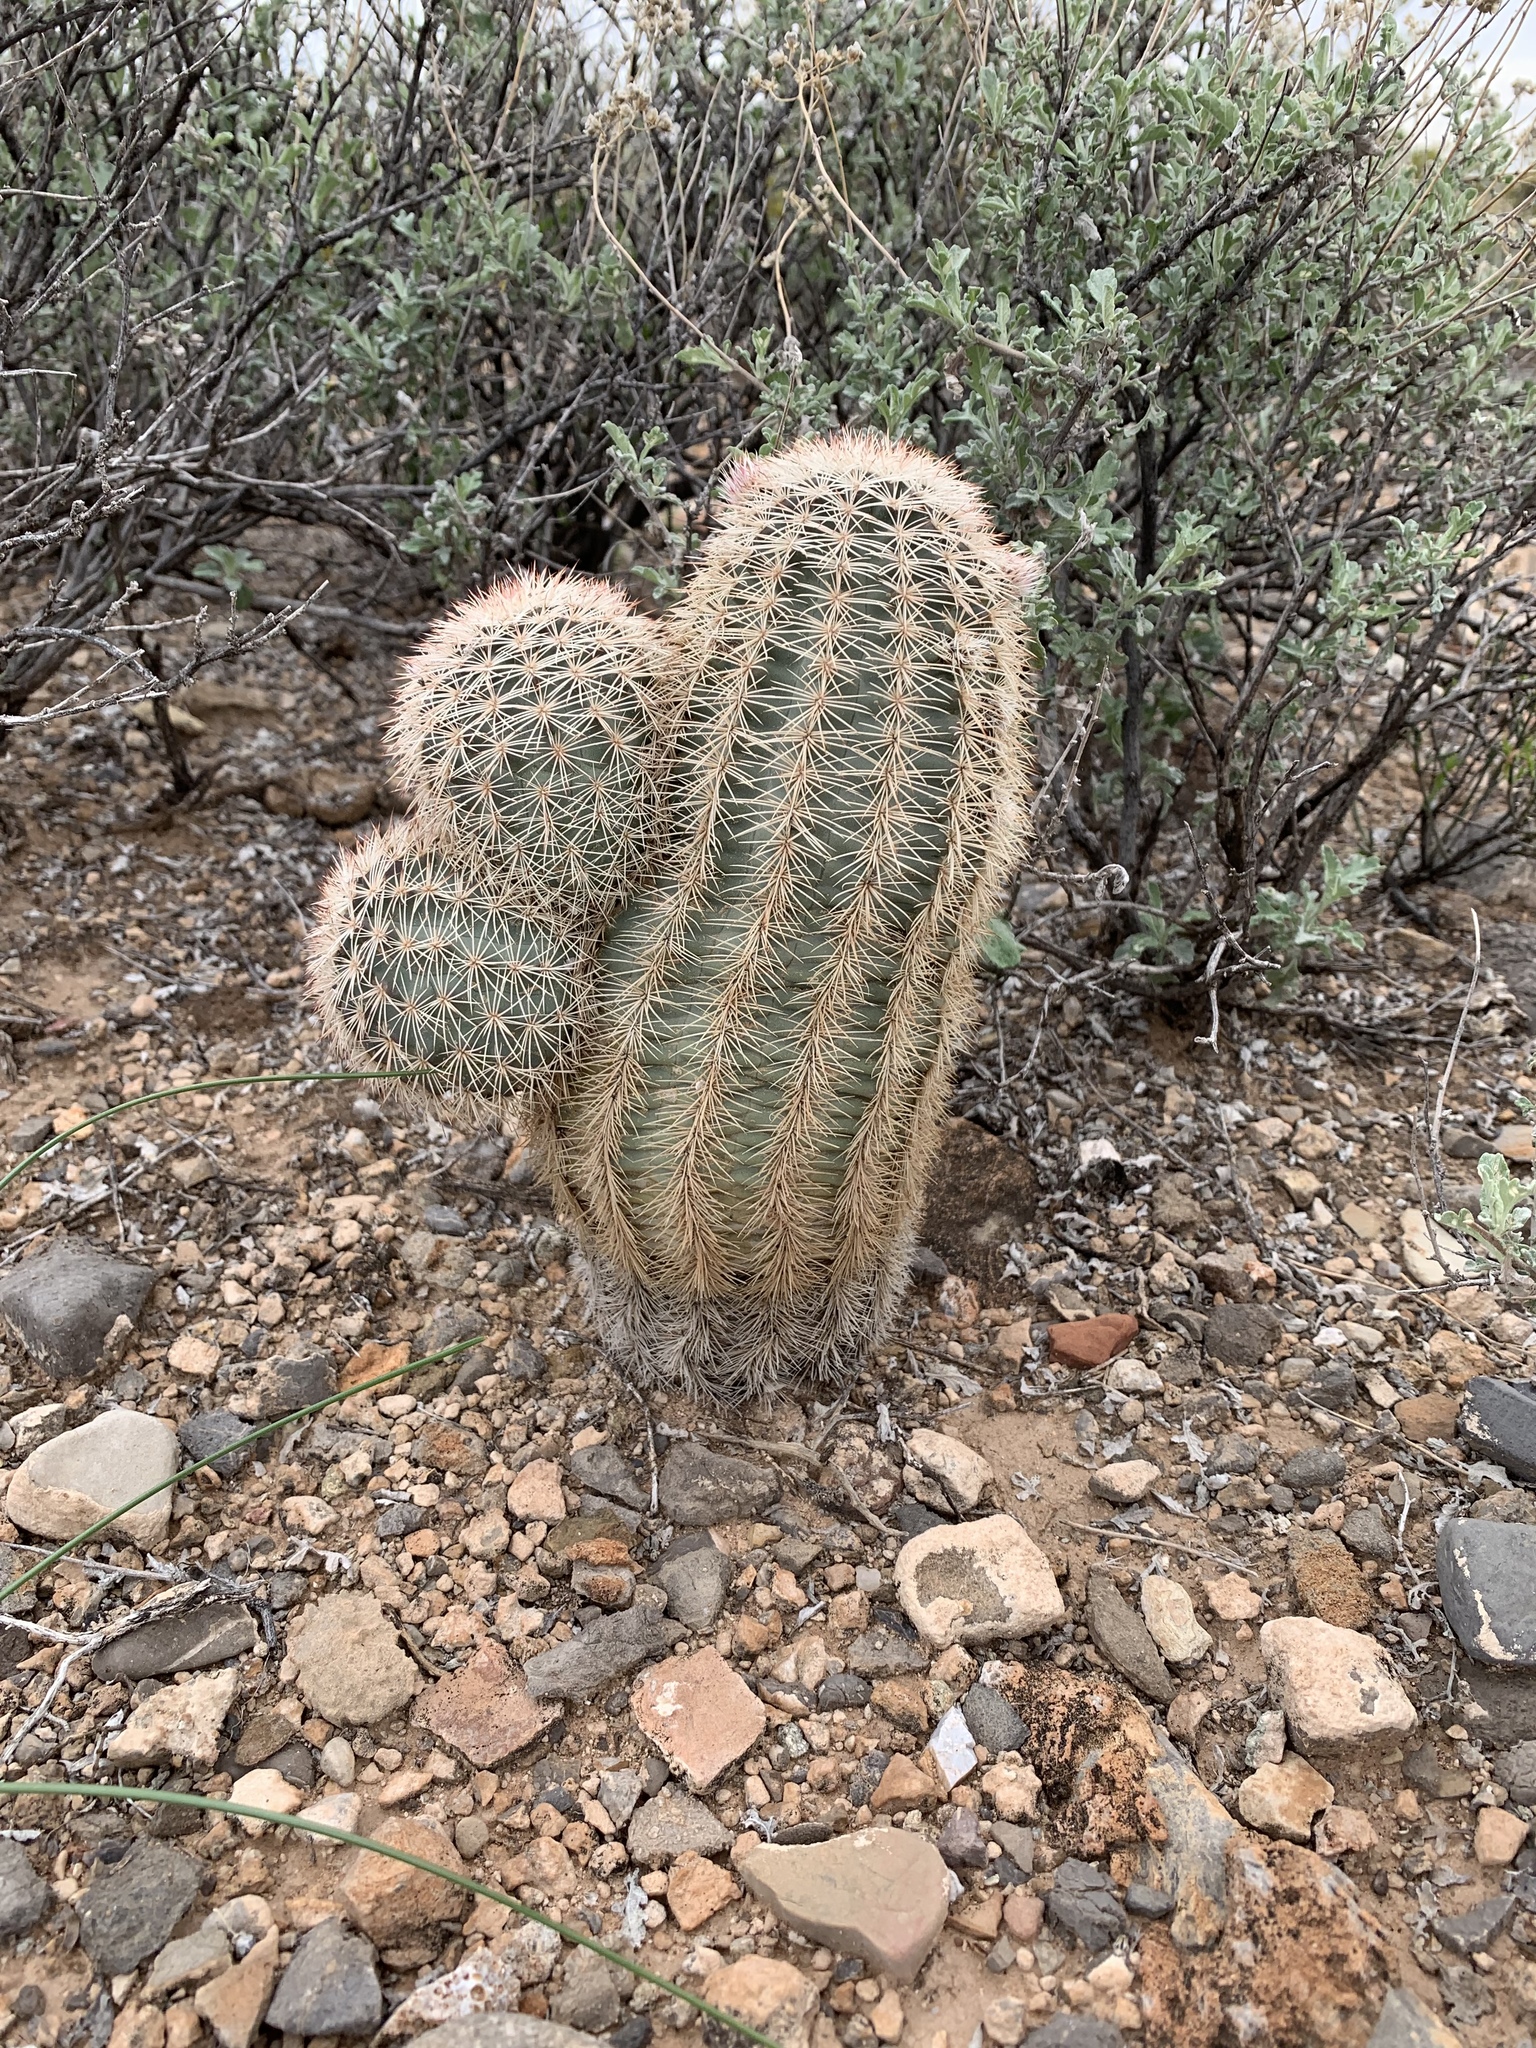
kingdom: Plantae
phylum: Tracheophyta
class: Magnoliopsida
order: Caryophyllales
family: Cactaceae
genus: Echinocereus
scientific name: Echinocereus dasyacanthus
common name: Spiny hedgehog cactus
